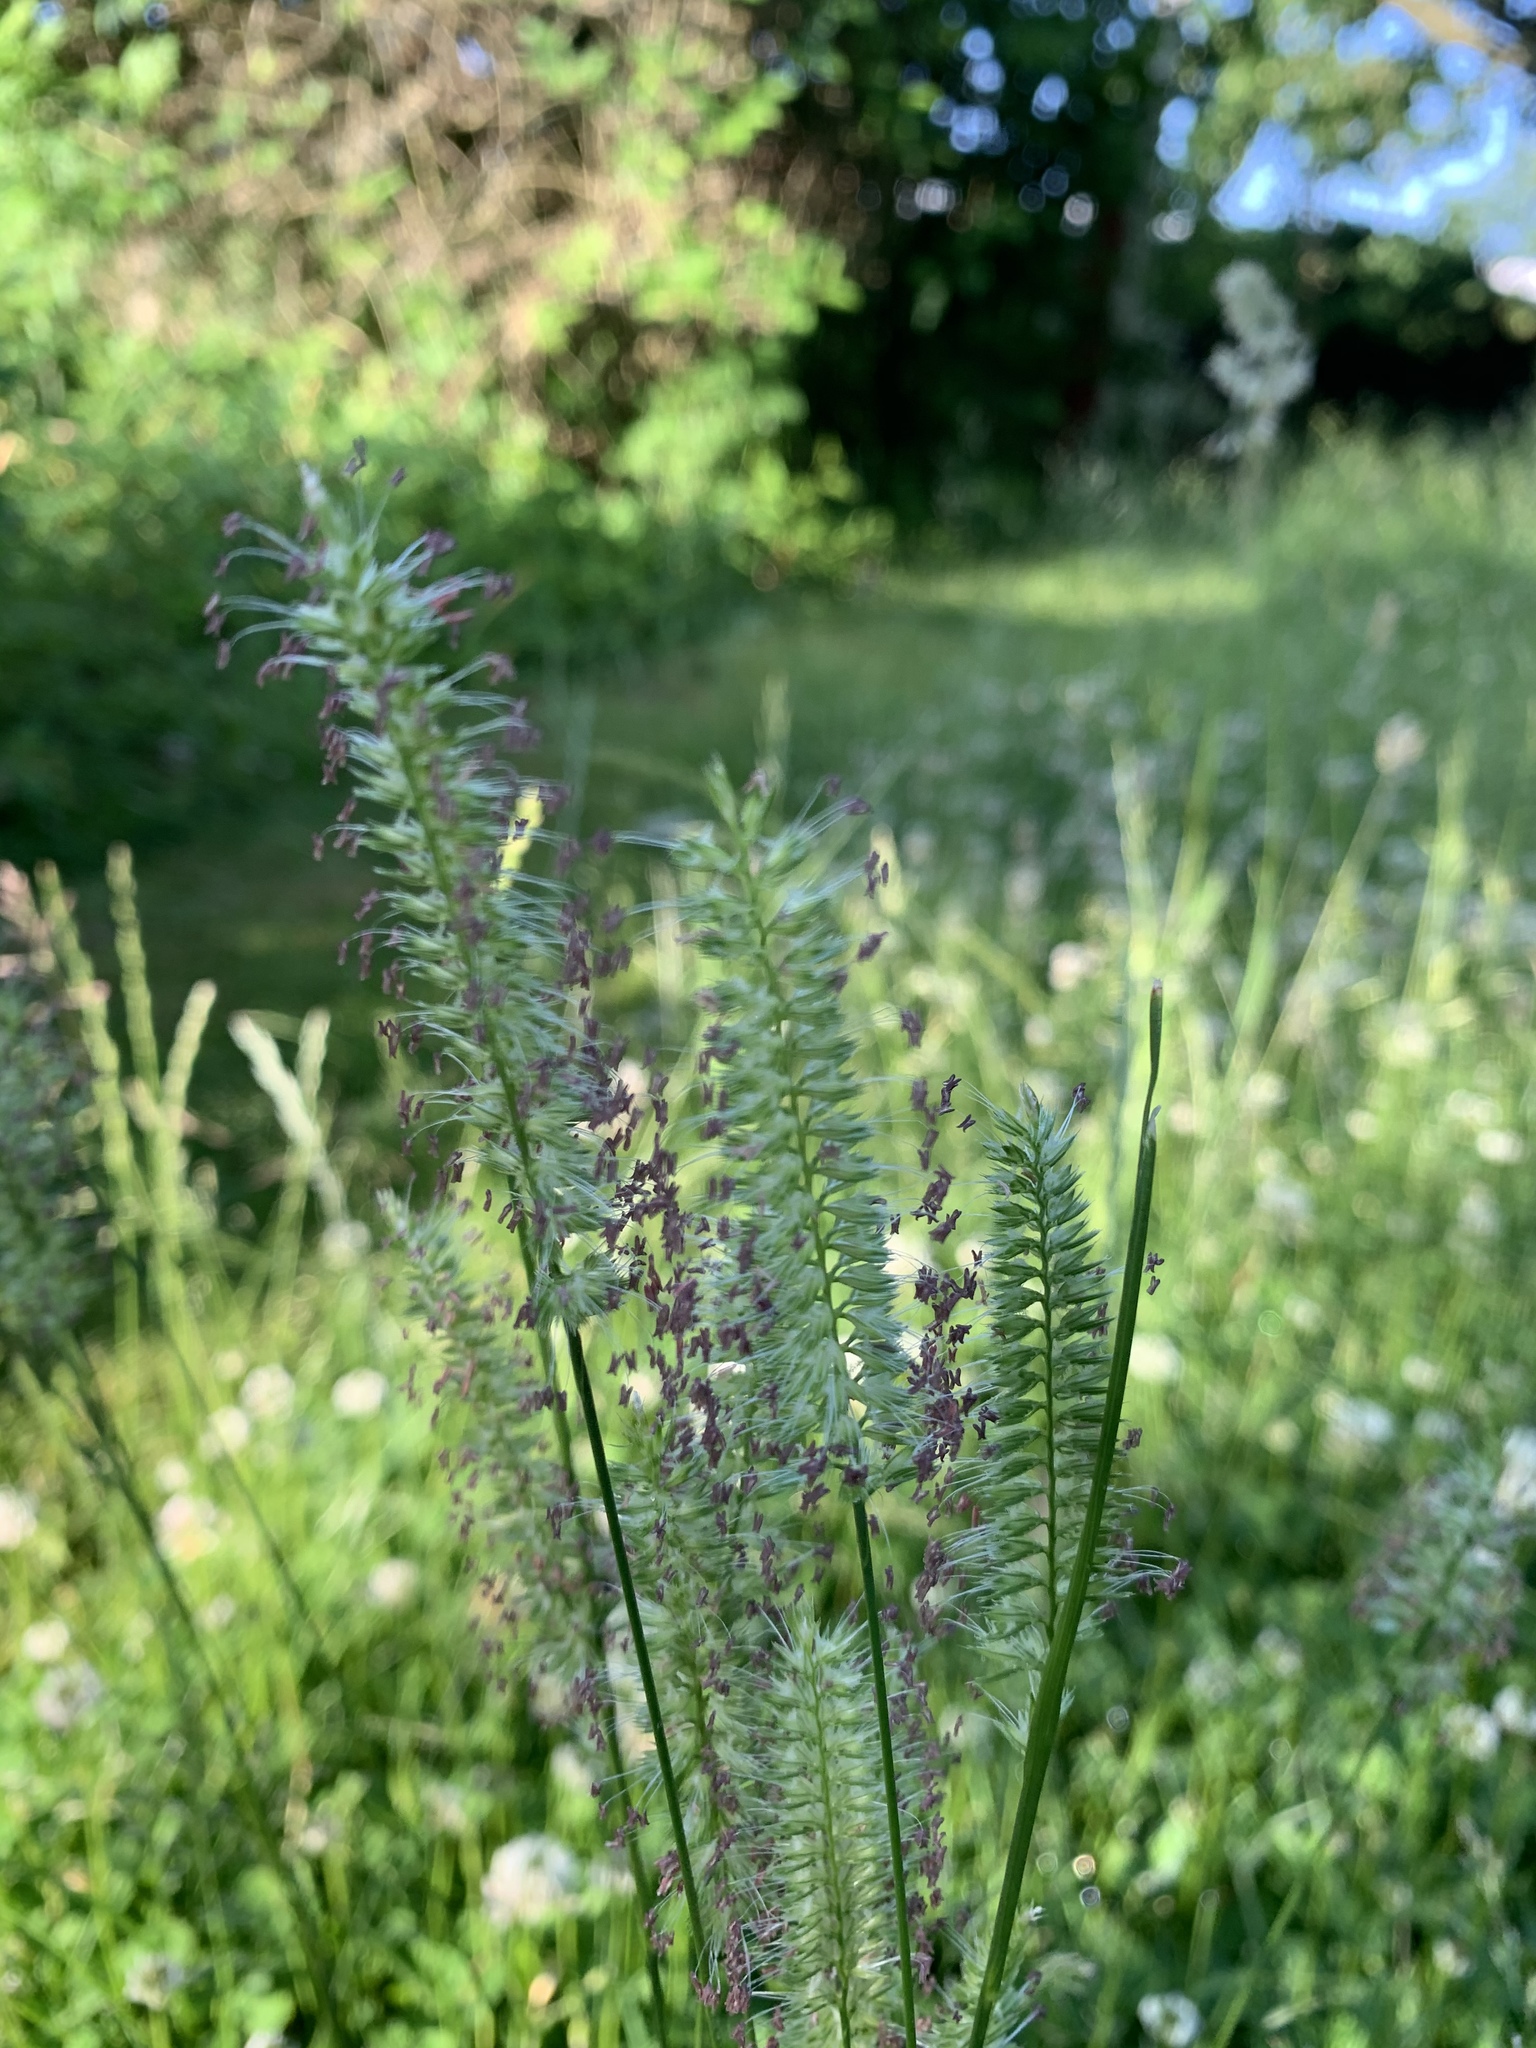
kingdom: Plantae
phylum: Tracheophyta
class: Liliopsida
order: Poales
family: Poaceae
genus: Cynosurus
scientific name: Cynosurus cristatus
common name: Crested dog's-tail
